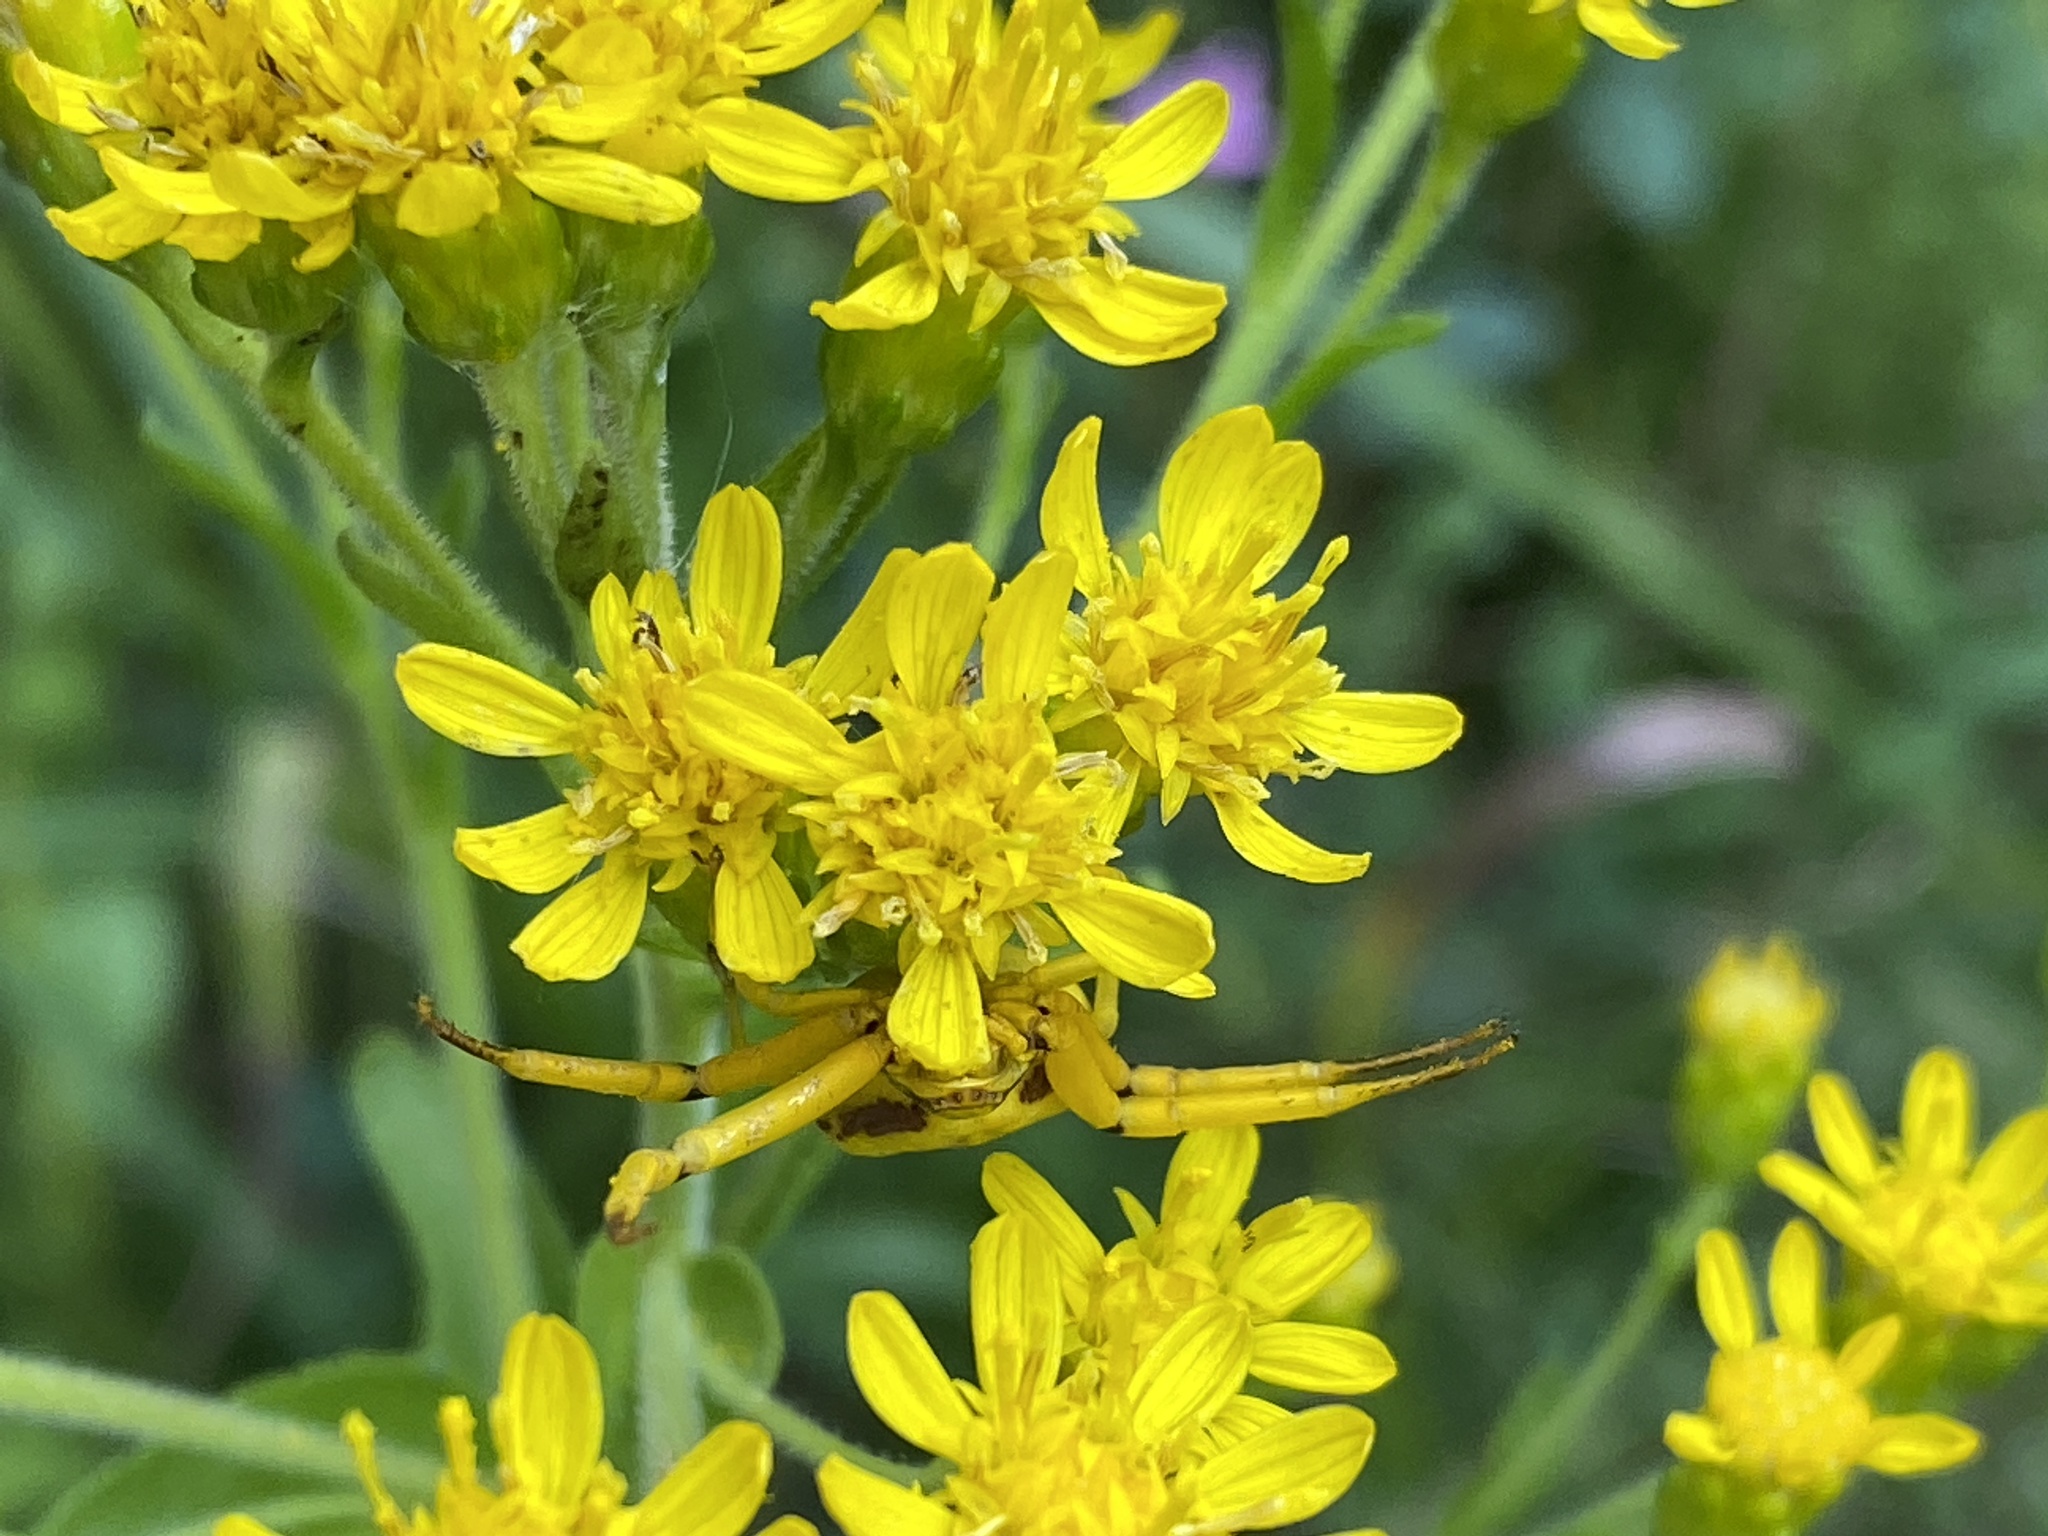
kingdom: Animalia
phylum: Arthropoda
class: Arachnida
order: Araneae
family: Thomisidae
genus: Misumenoides
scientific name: Misumenoides formosipes
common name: White-banded crab spider
